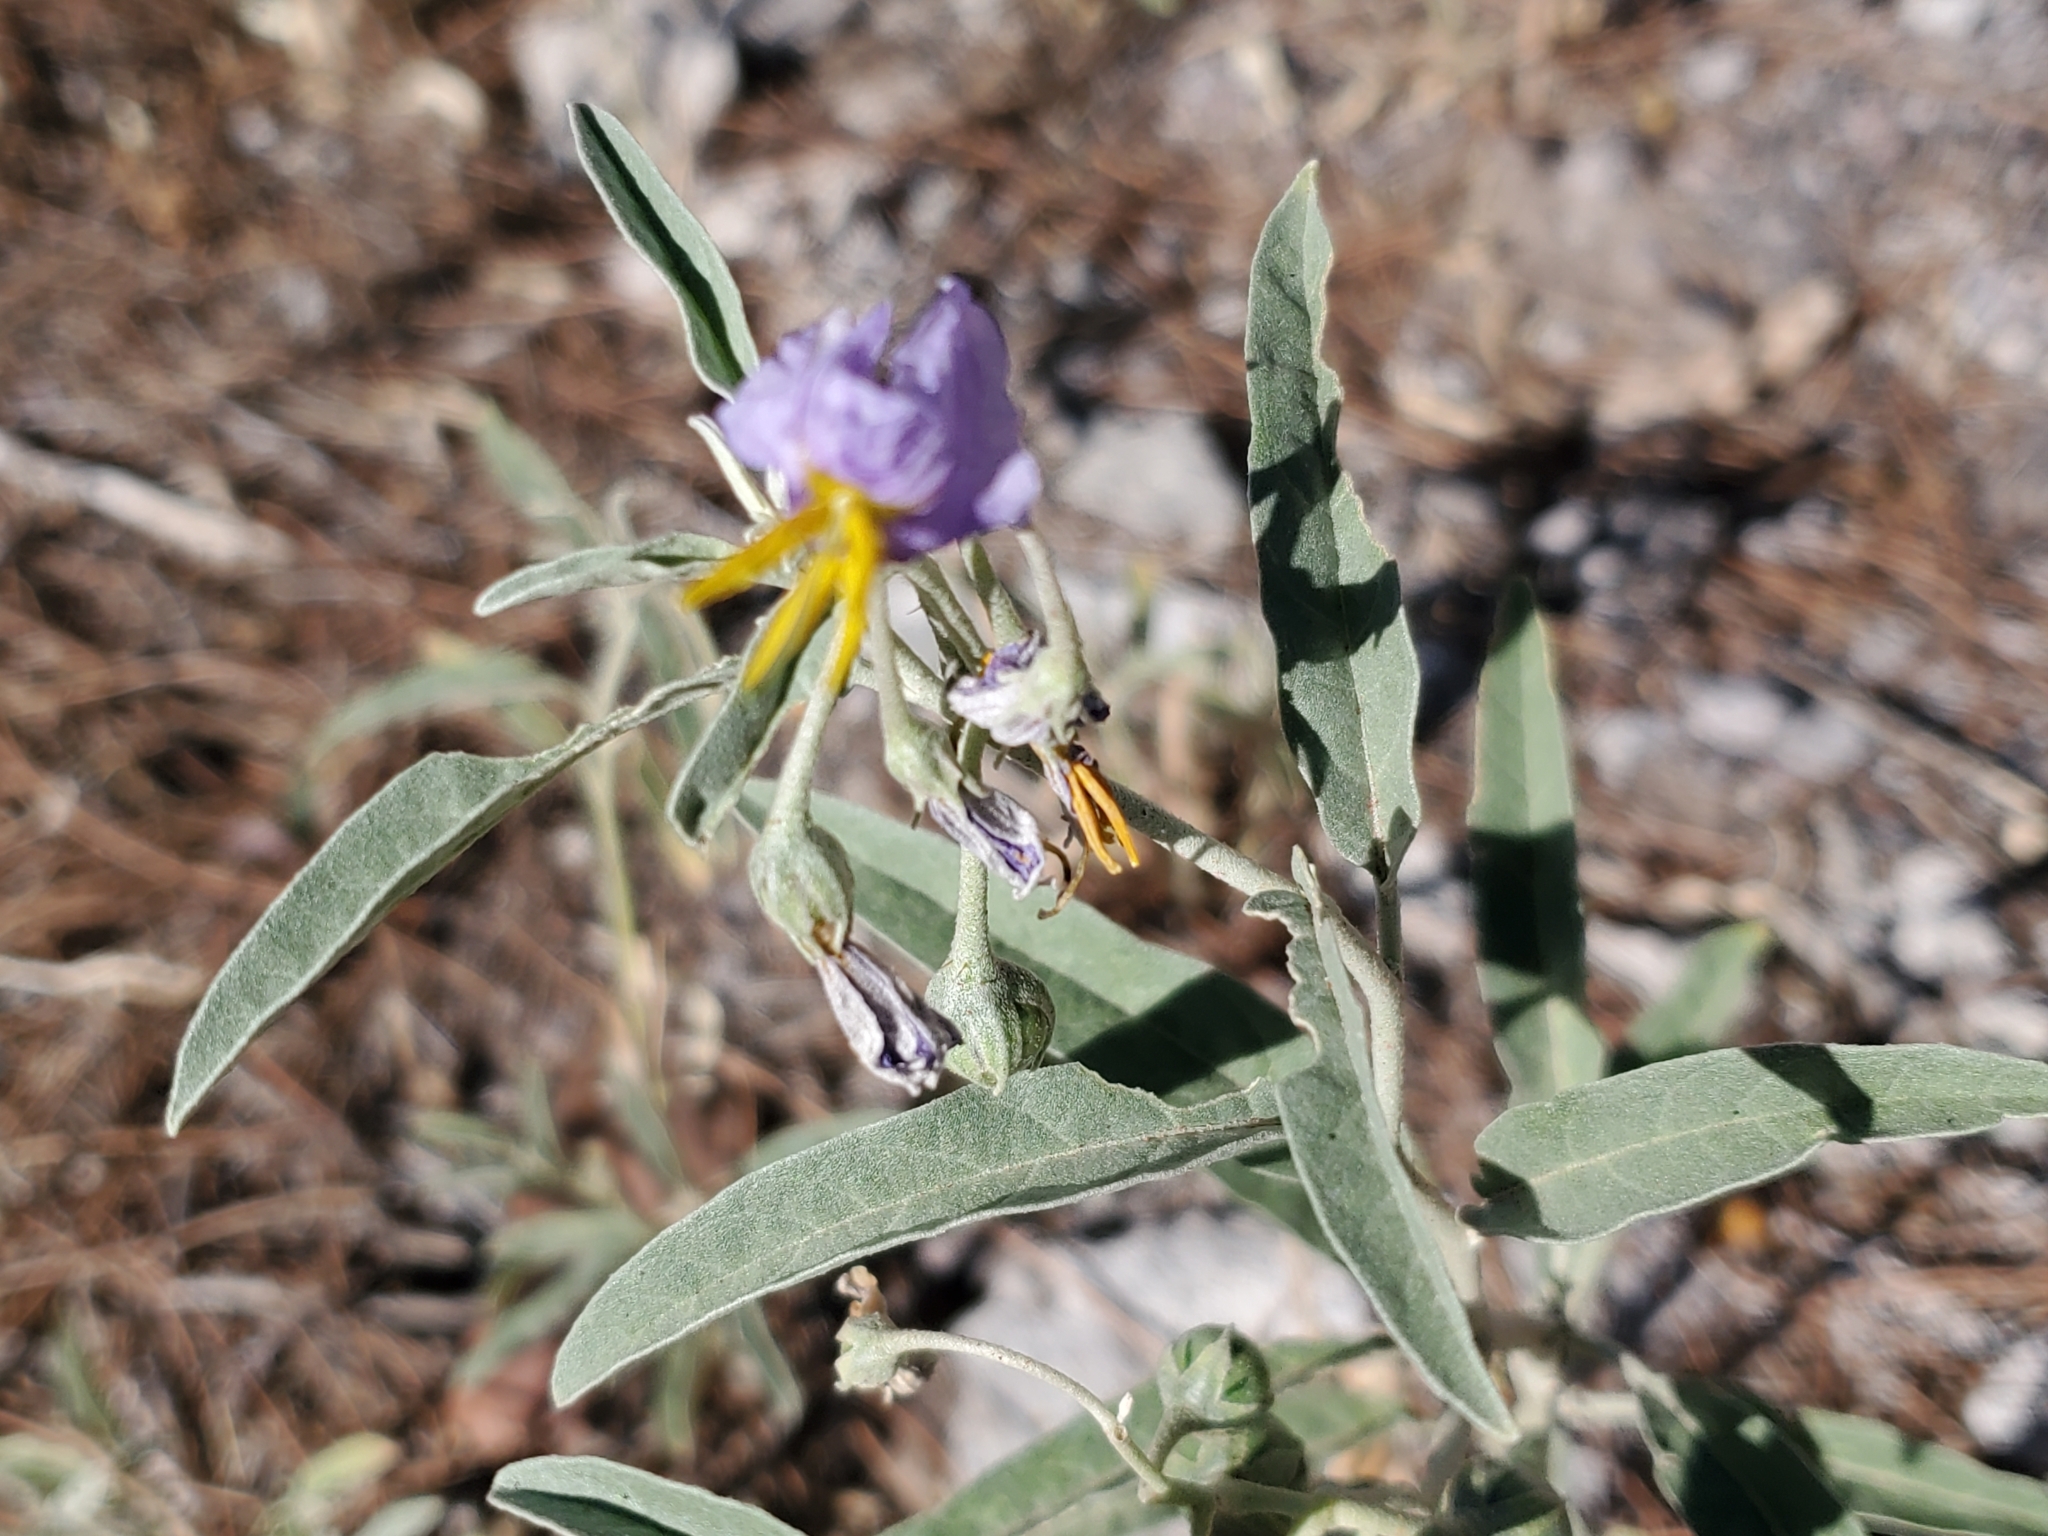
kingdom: Plantae
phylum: Tracheophyta
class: Magnoliopsida
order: Solanales
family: Solanaceae
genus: Solanum
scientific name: Solanum elaeagnifolium
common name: Silverleaf nightshade
